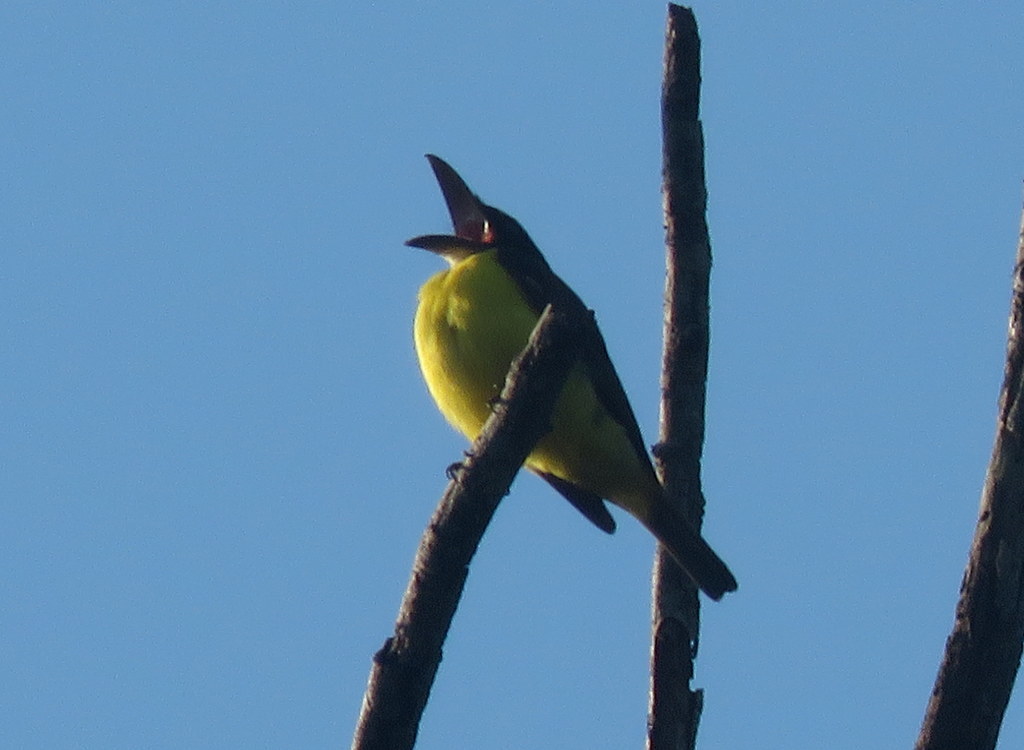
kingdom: Animalia
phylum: Chordata
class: Aves
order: Passeriformes
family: Tyrannidae
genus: Megarynchus
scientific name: Megarynchus pitangua
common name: Boat-billed flycatcher
